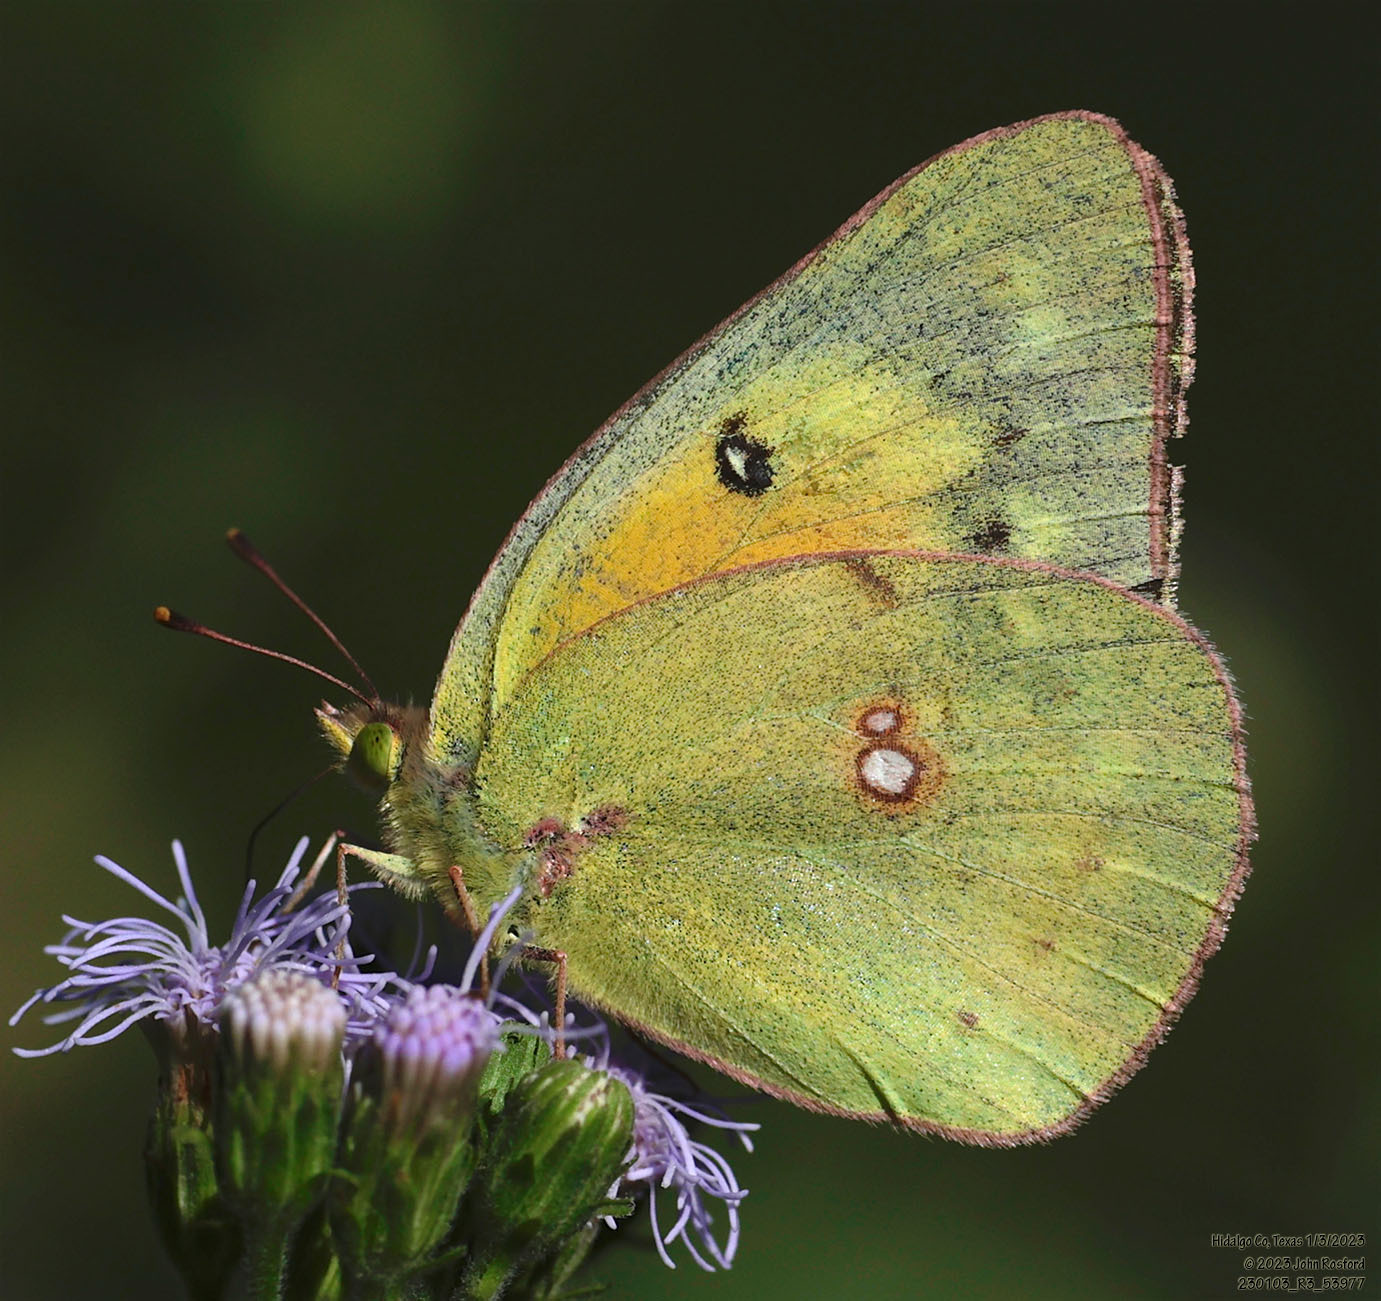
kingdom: Animalia
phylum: Arthropoda
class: Insecta
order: Lepidoptera
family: Pieridae
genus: Colias
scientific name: Colias eurytheme
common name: Alfalfa butterfly
